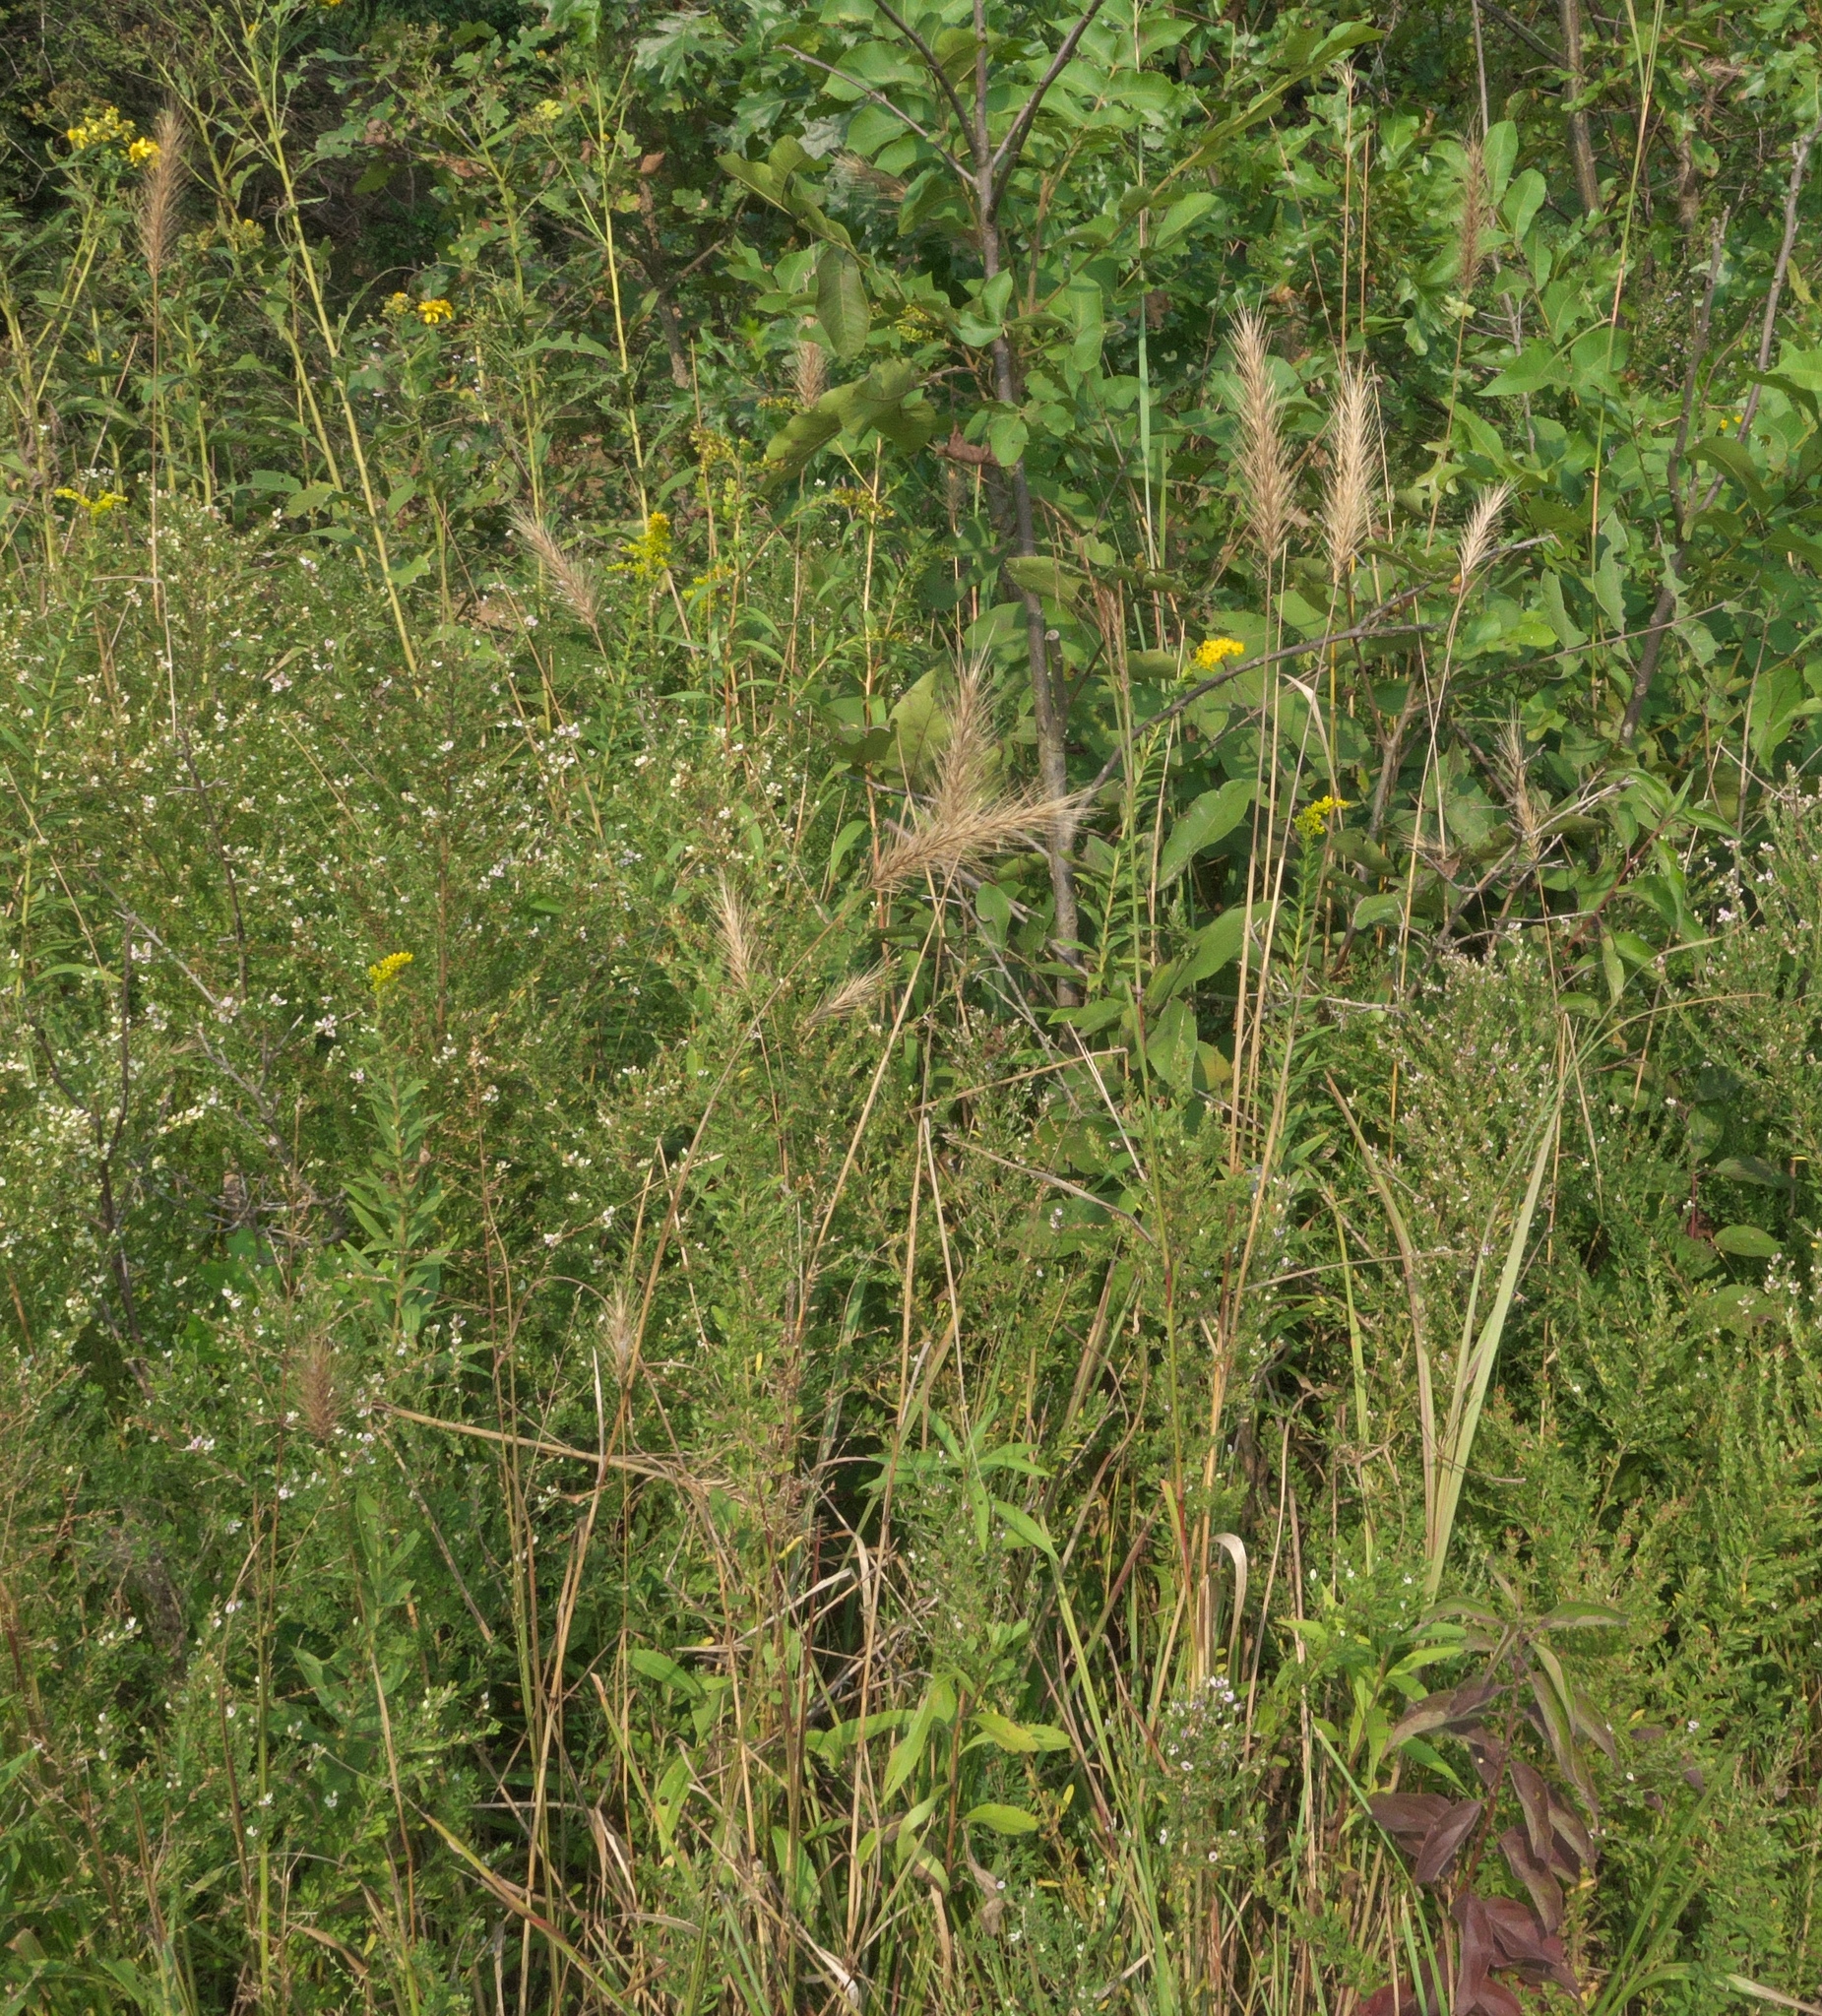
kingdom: Plantae
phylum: Tracheophyta
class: Liliopsida
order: Poales
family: Poaceae
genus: Elymus
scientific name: Elymus virginicus
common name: Common eastern wildrye
